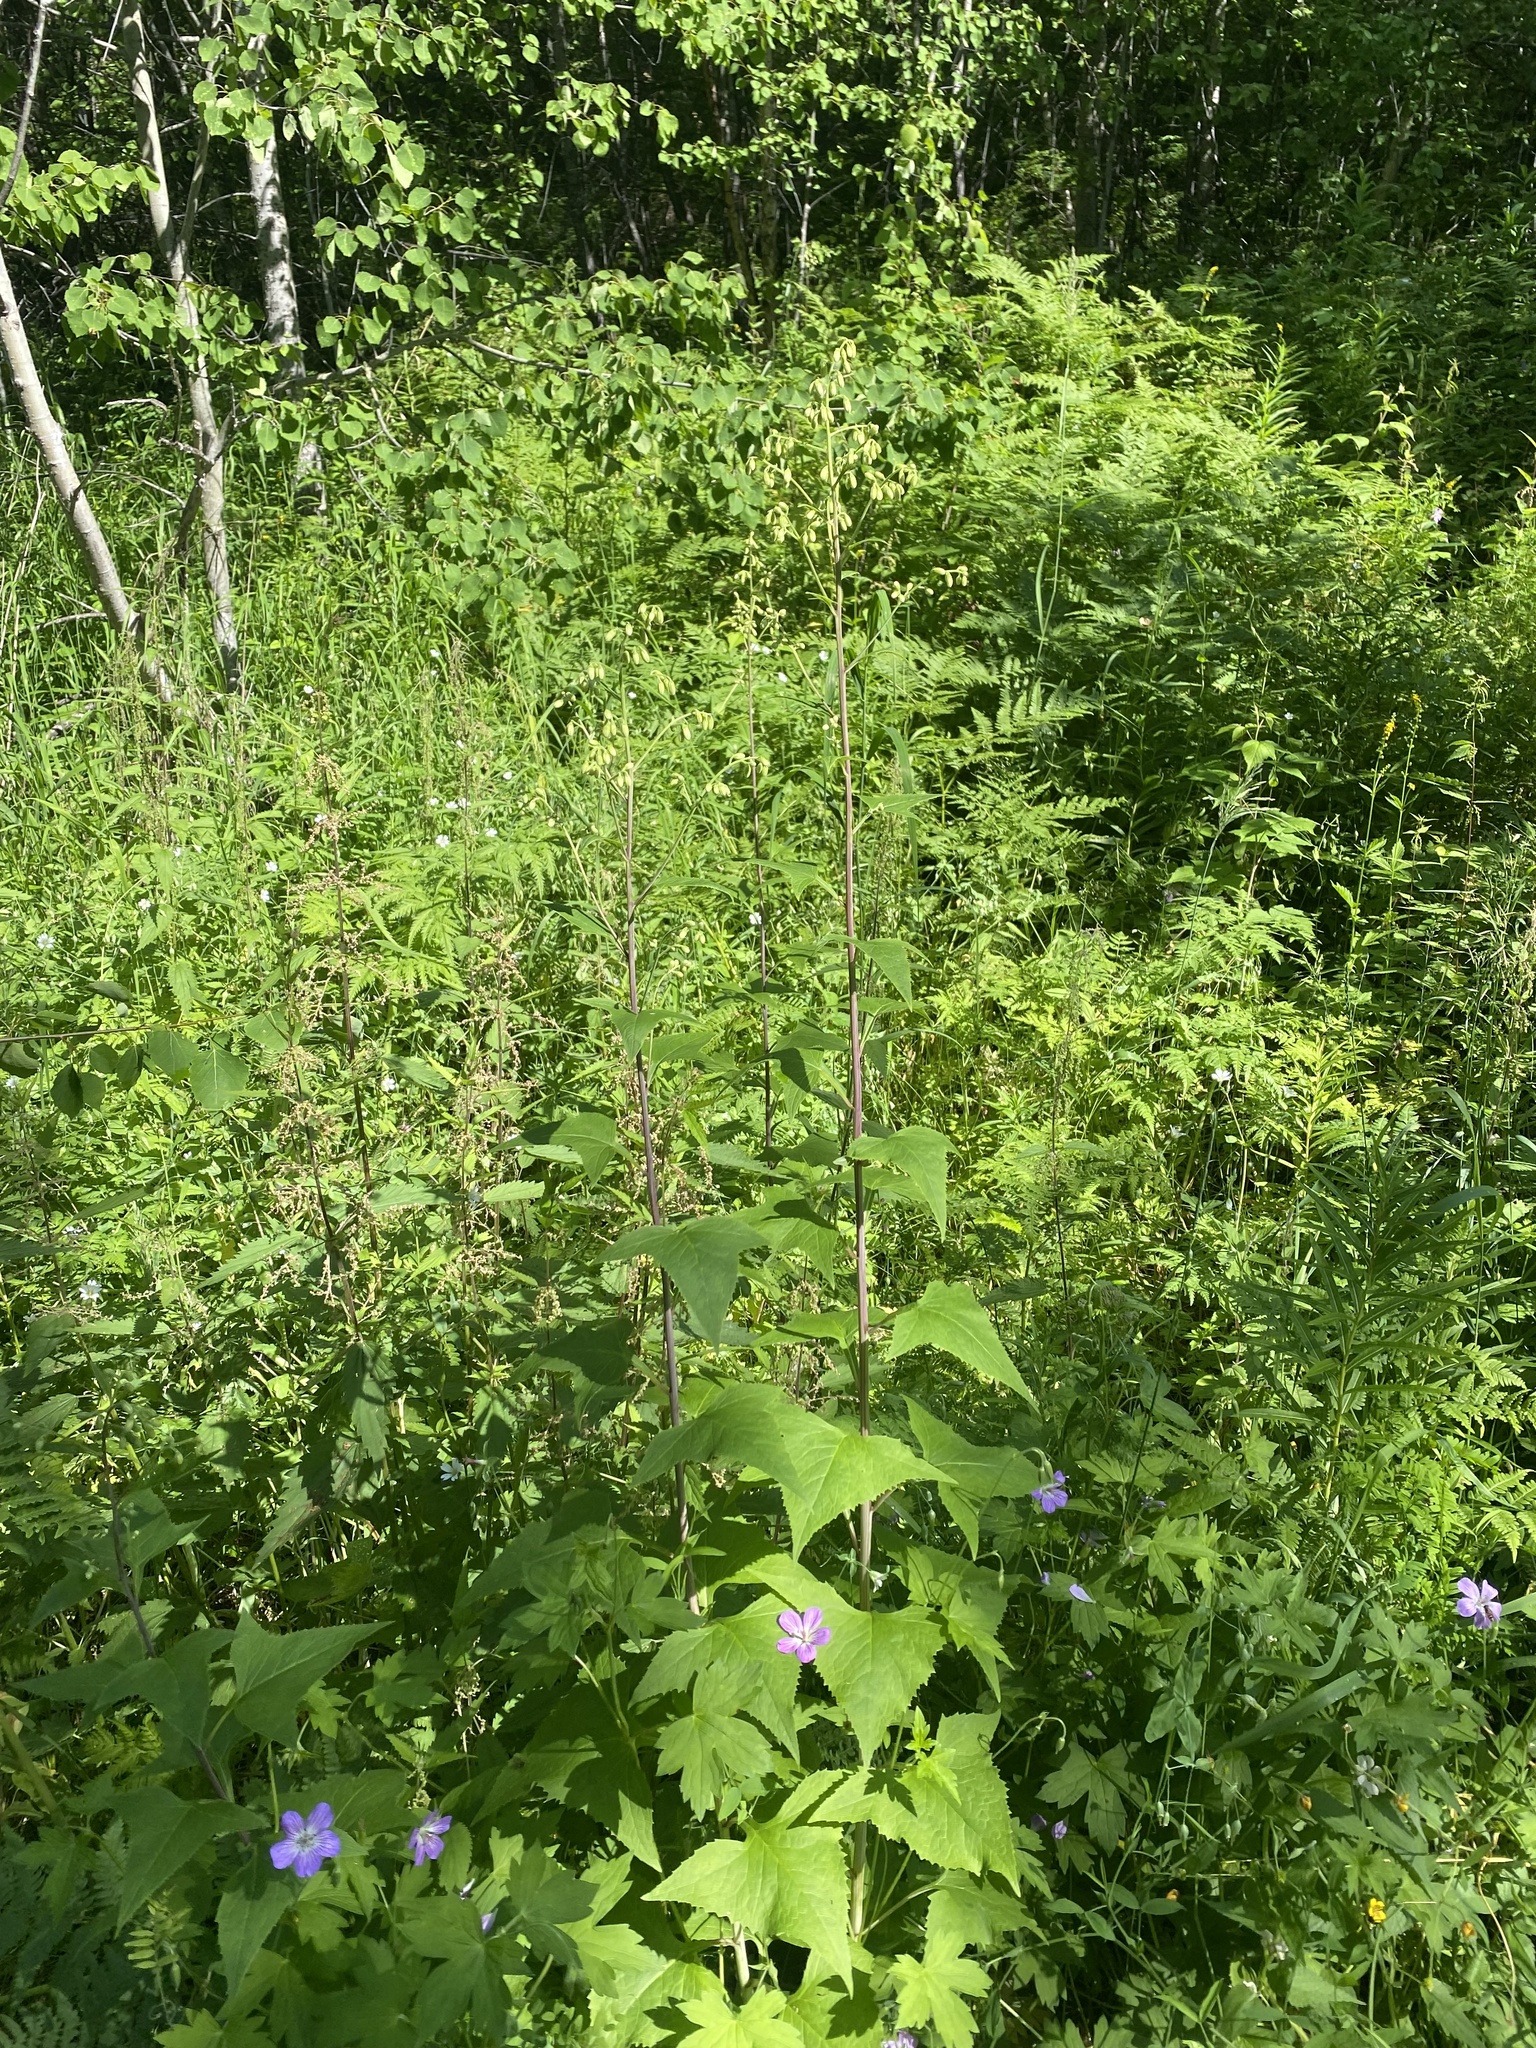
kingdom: Plantae
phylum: Tracheophyta
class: Magnoliopsida
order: Asterales
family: Asteraceae
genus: Parasenecio
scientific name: Parasenecio hastatus
